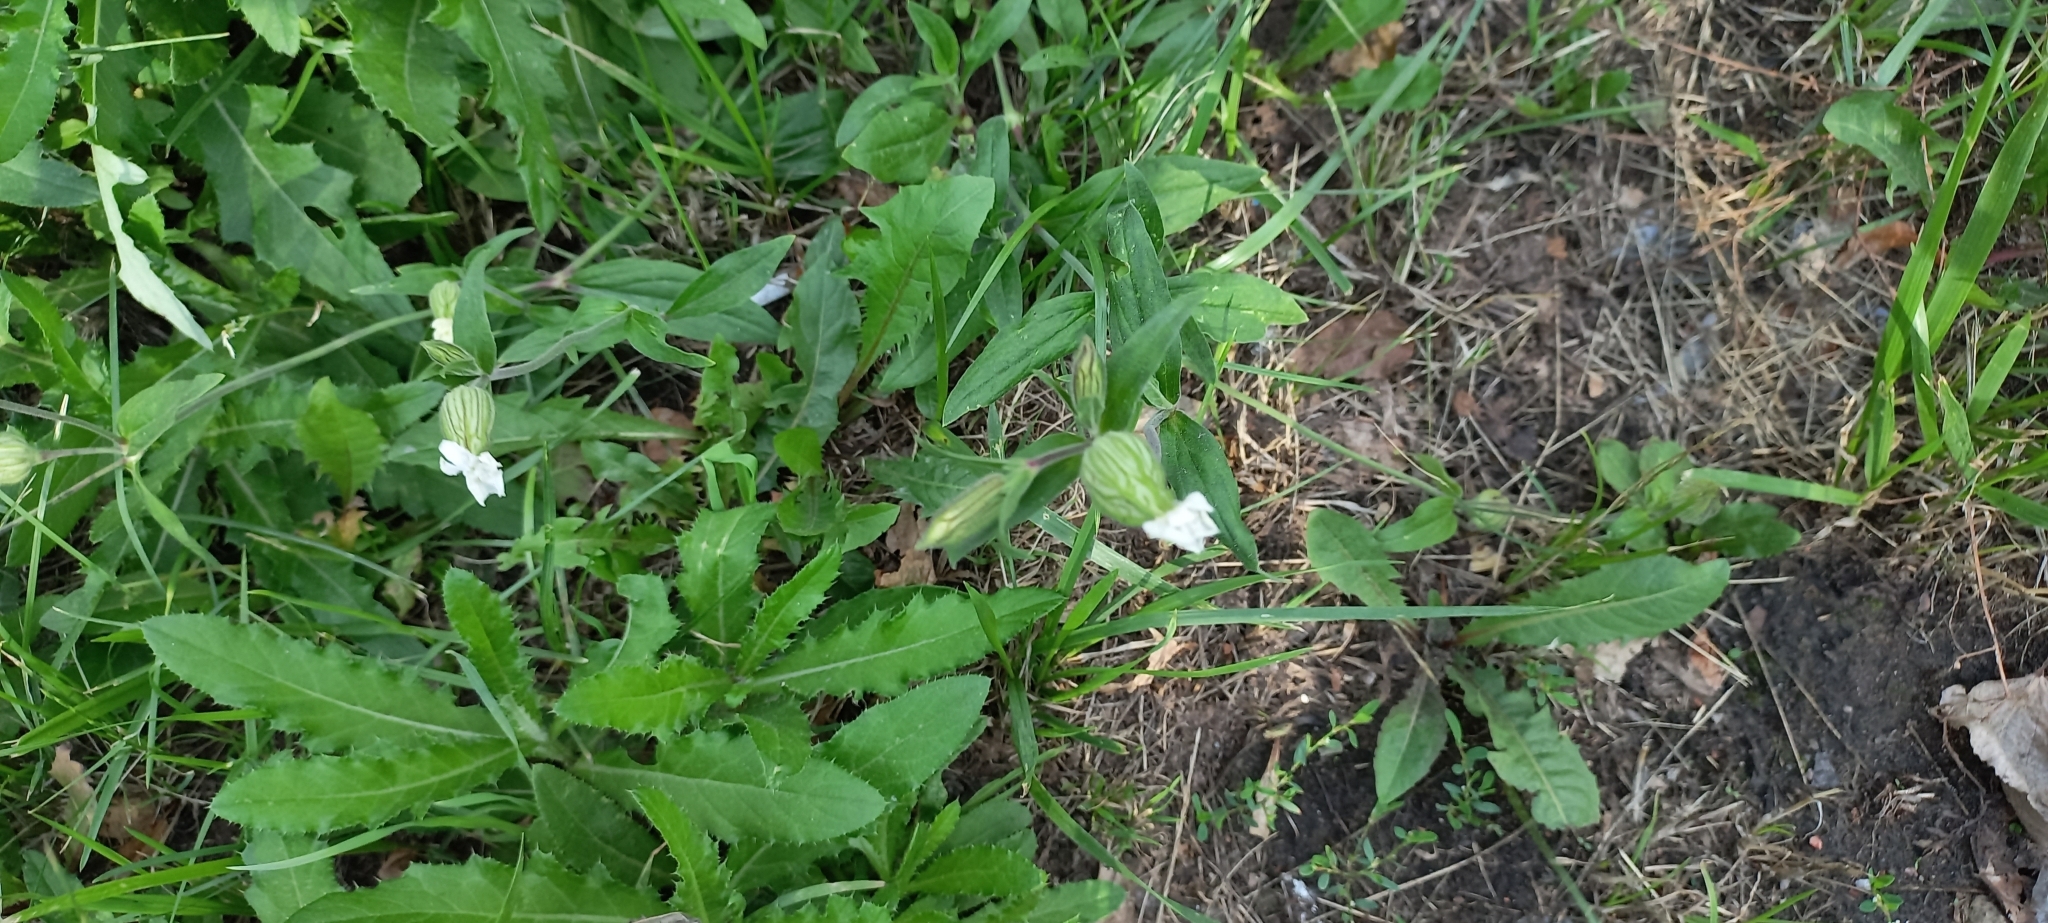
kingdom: Plantae
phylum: Tracheophyta
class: Magnoliopsida
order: Caryophyllales
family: Caryophyllaceae
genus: Silene
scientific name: Silene latifolia
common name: White campion
